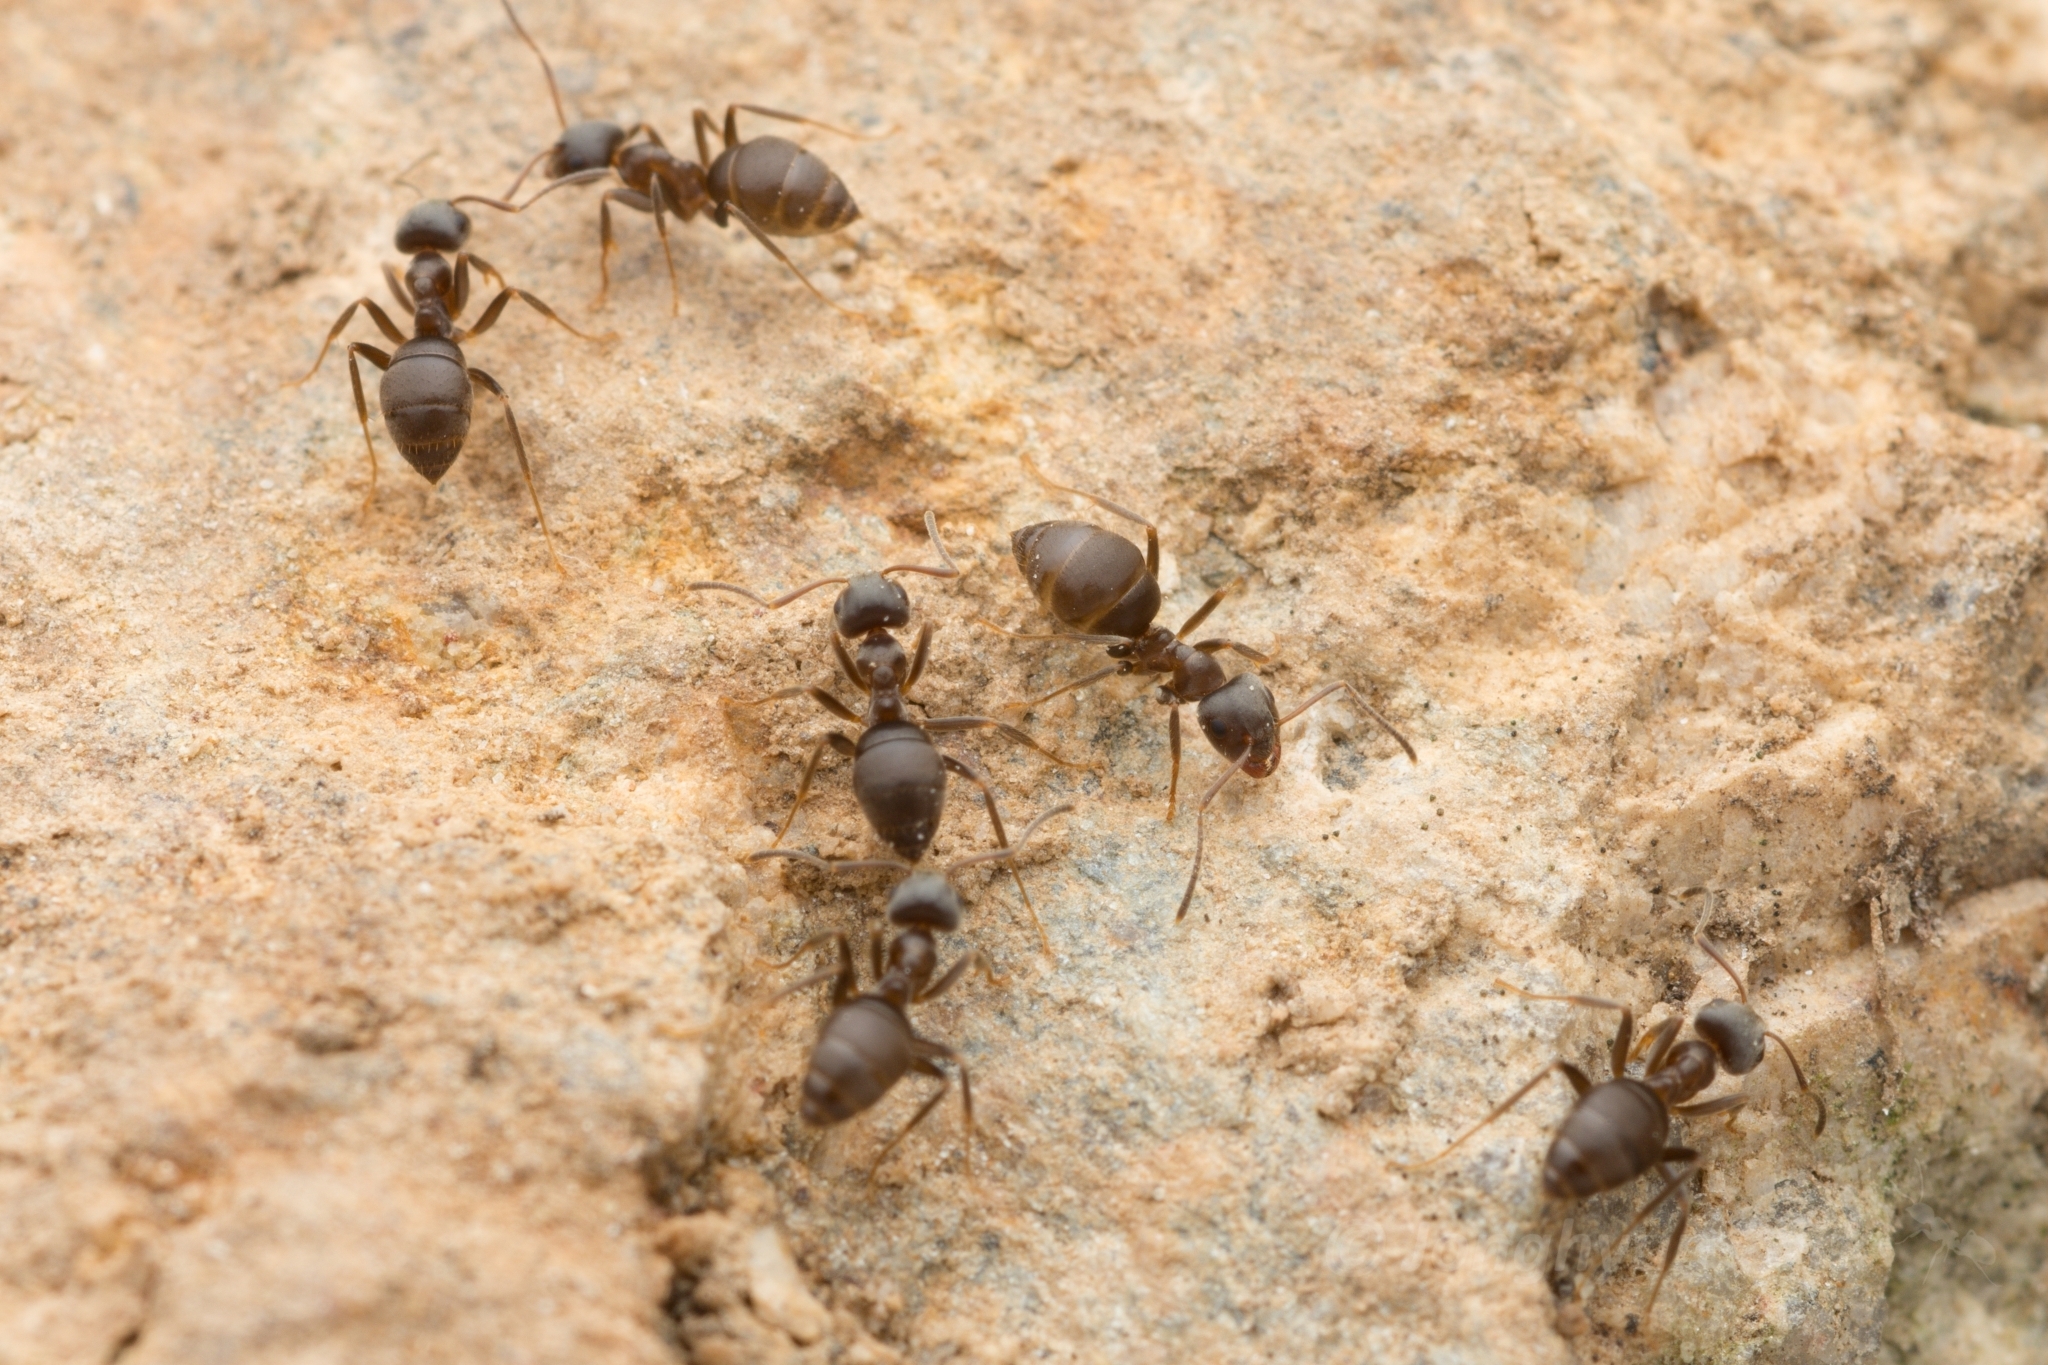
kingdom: Animalia
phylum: Arthropoda
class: Insecta
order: Hymenoptera
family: Formicidae
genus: Lasius
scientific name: Lasius japonicus
